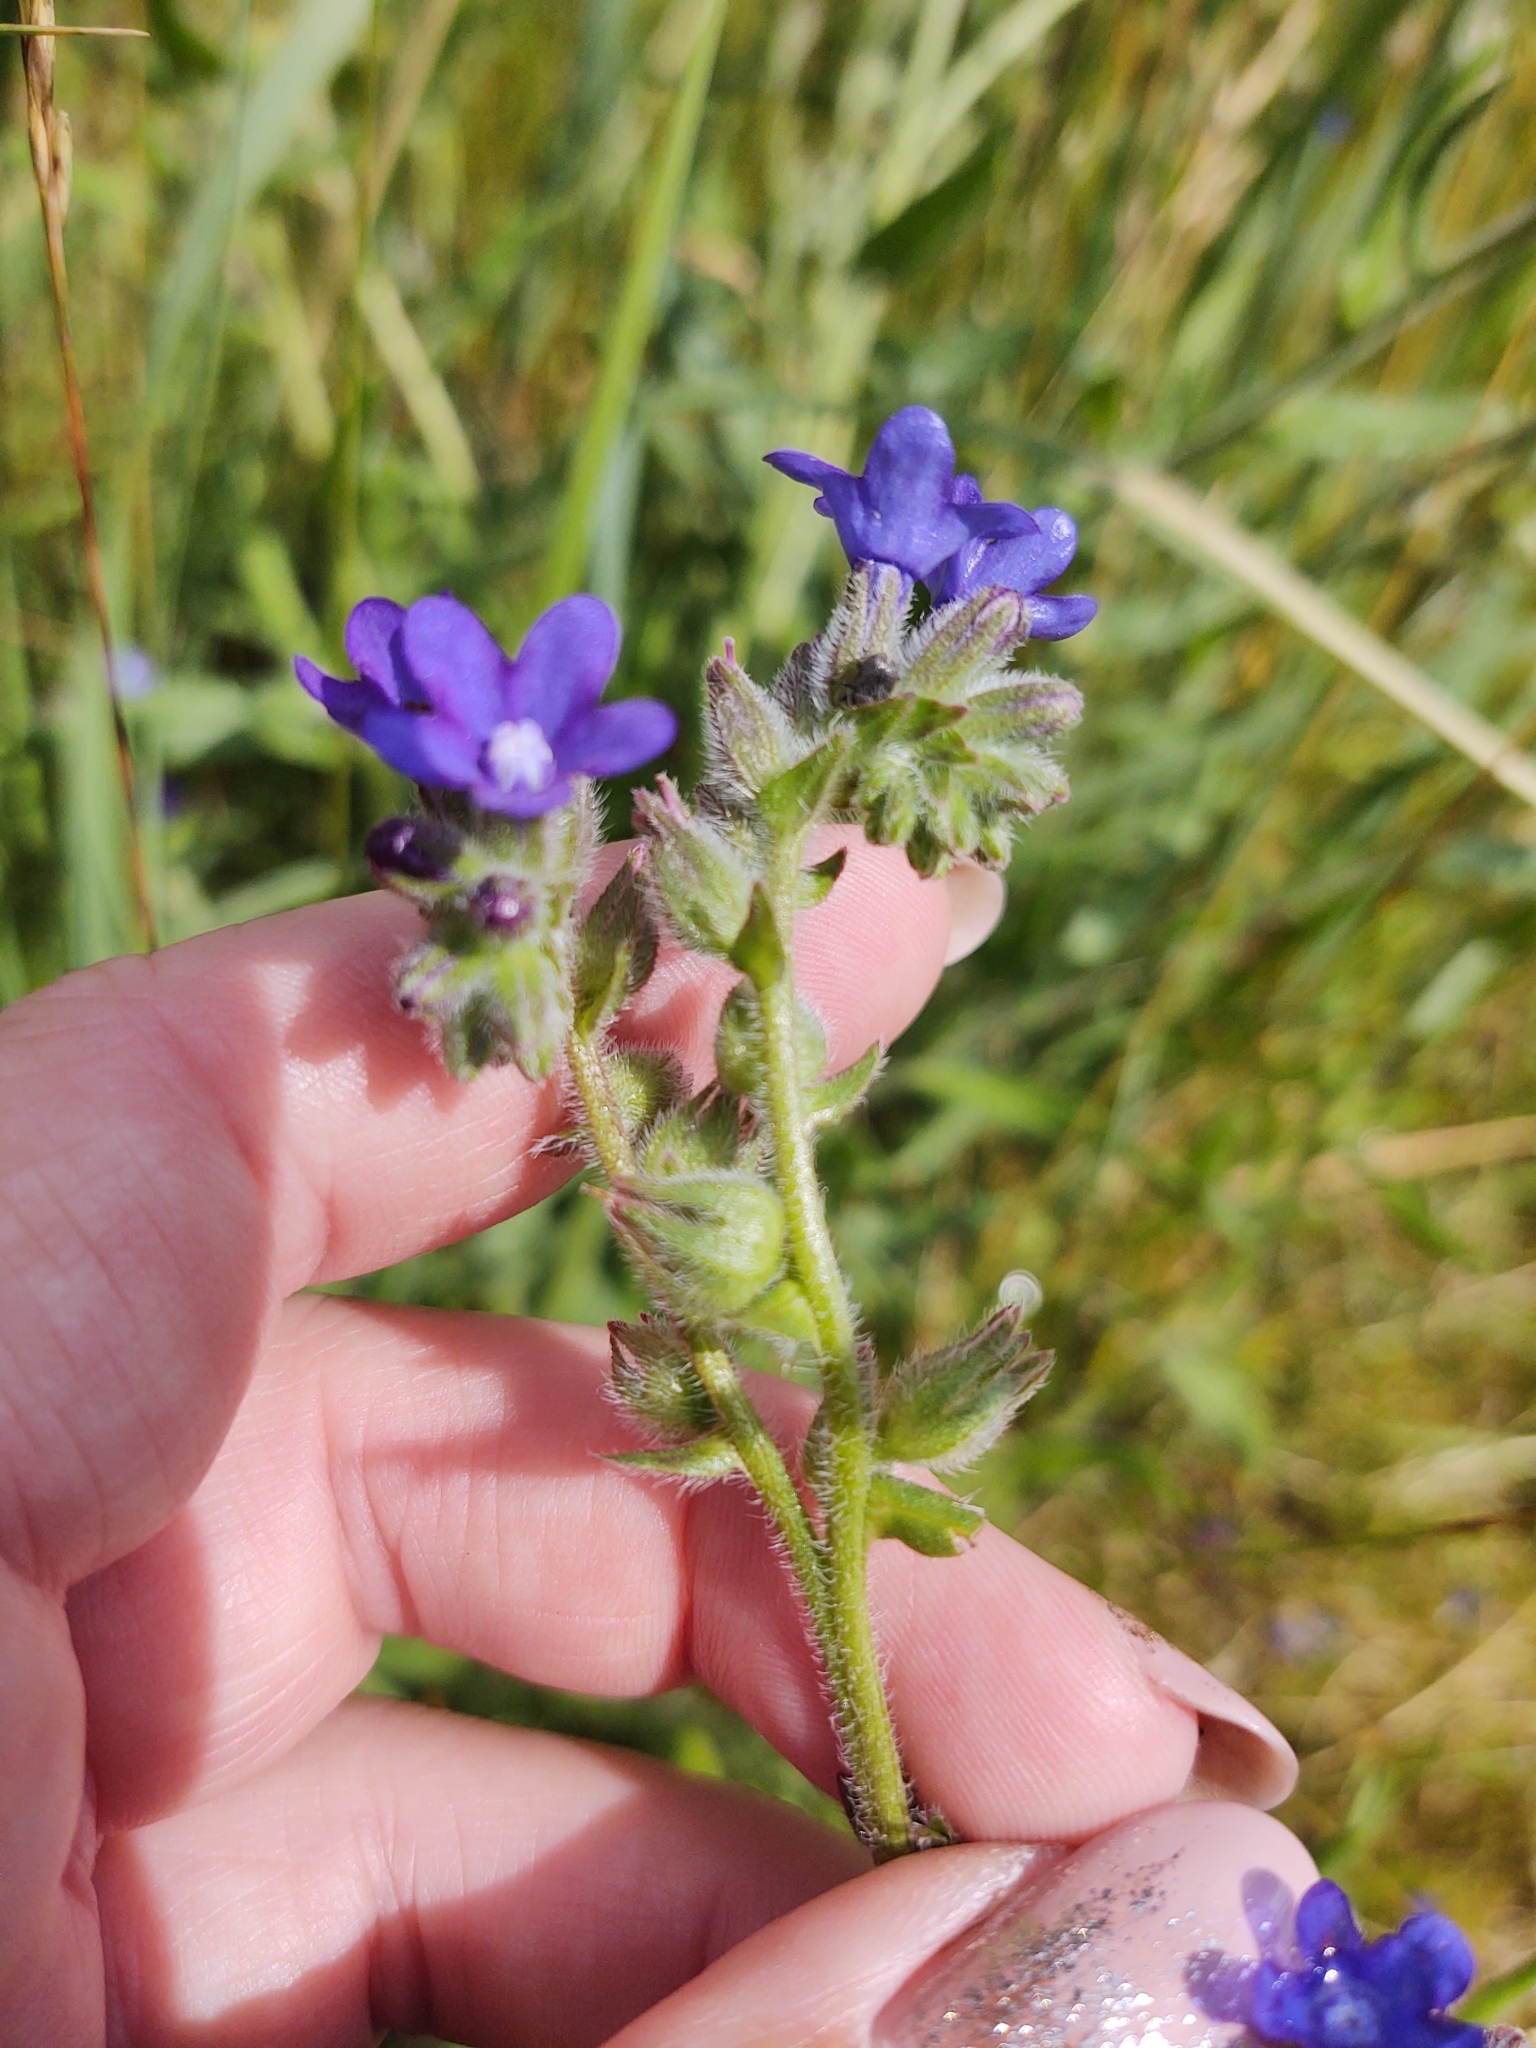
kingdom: Plantae
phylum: Tracheophyta
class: Magnoliopsida
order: Boraginales
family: Boraginaceae
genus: Anchusa
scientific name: Anchusa officinalis
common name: Alkanet
